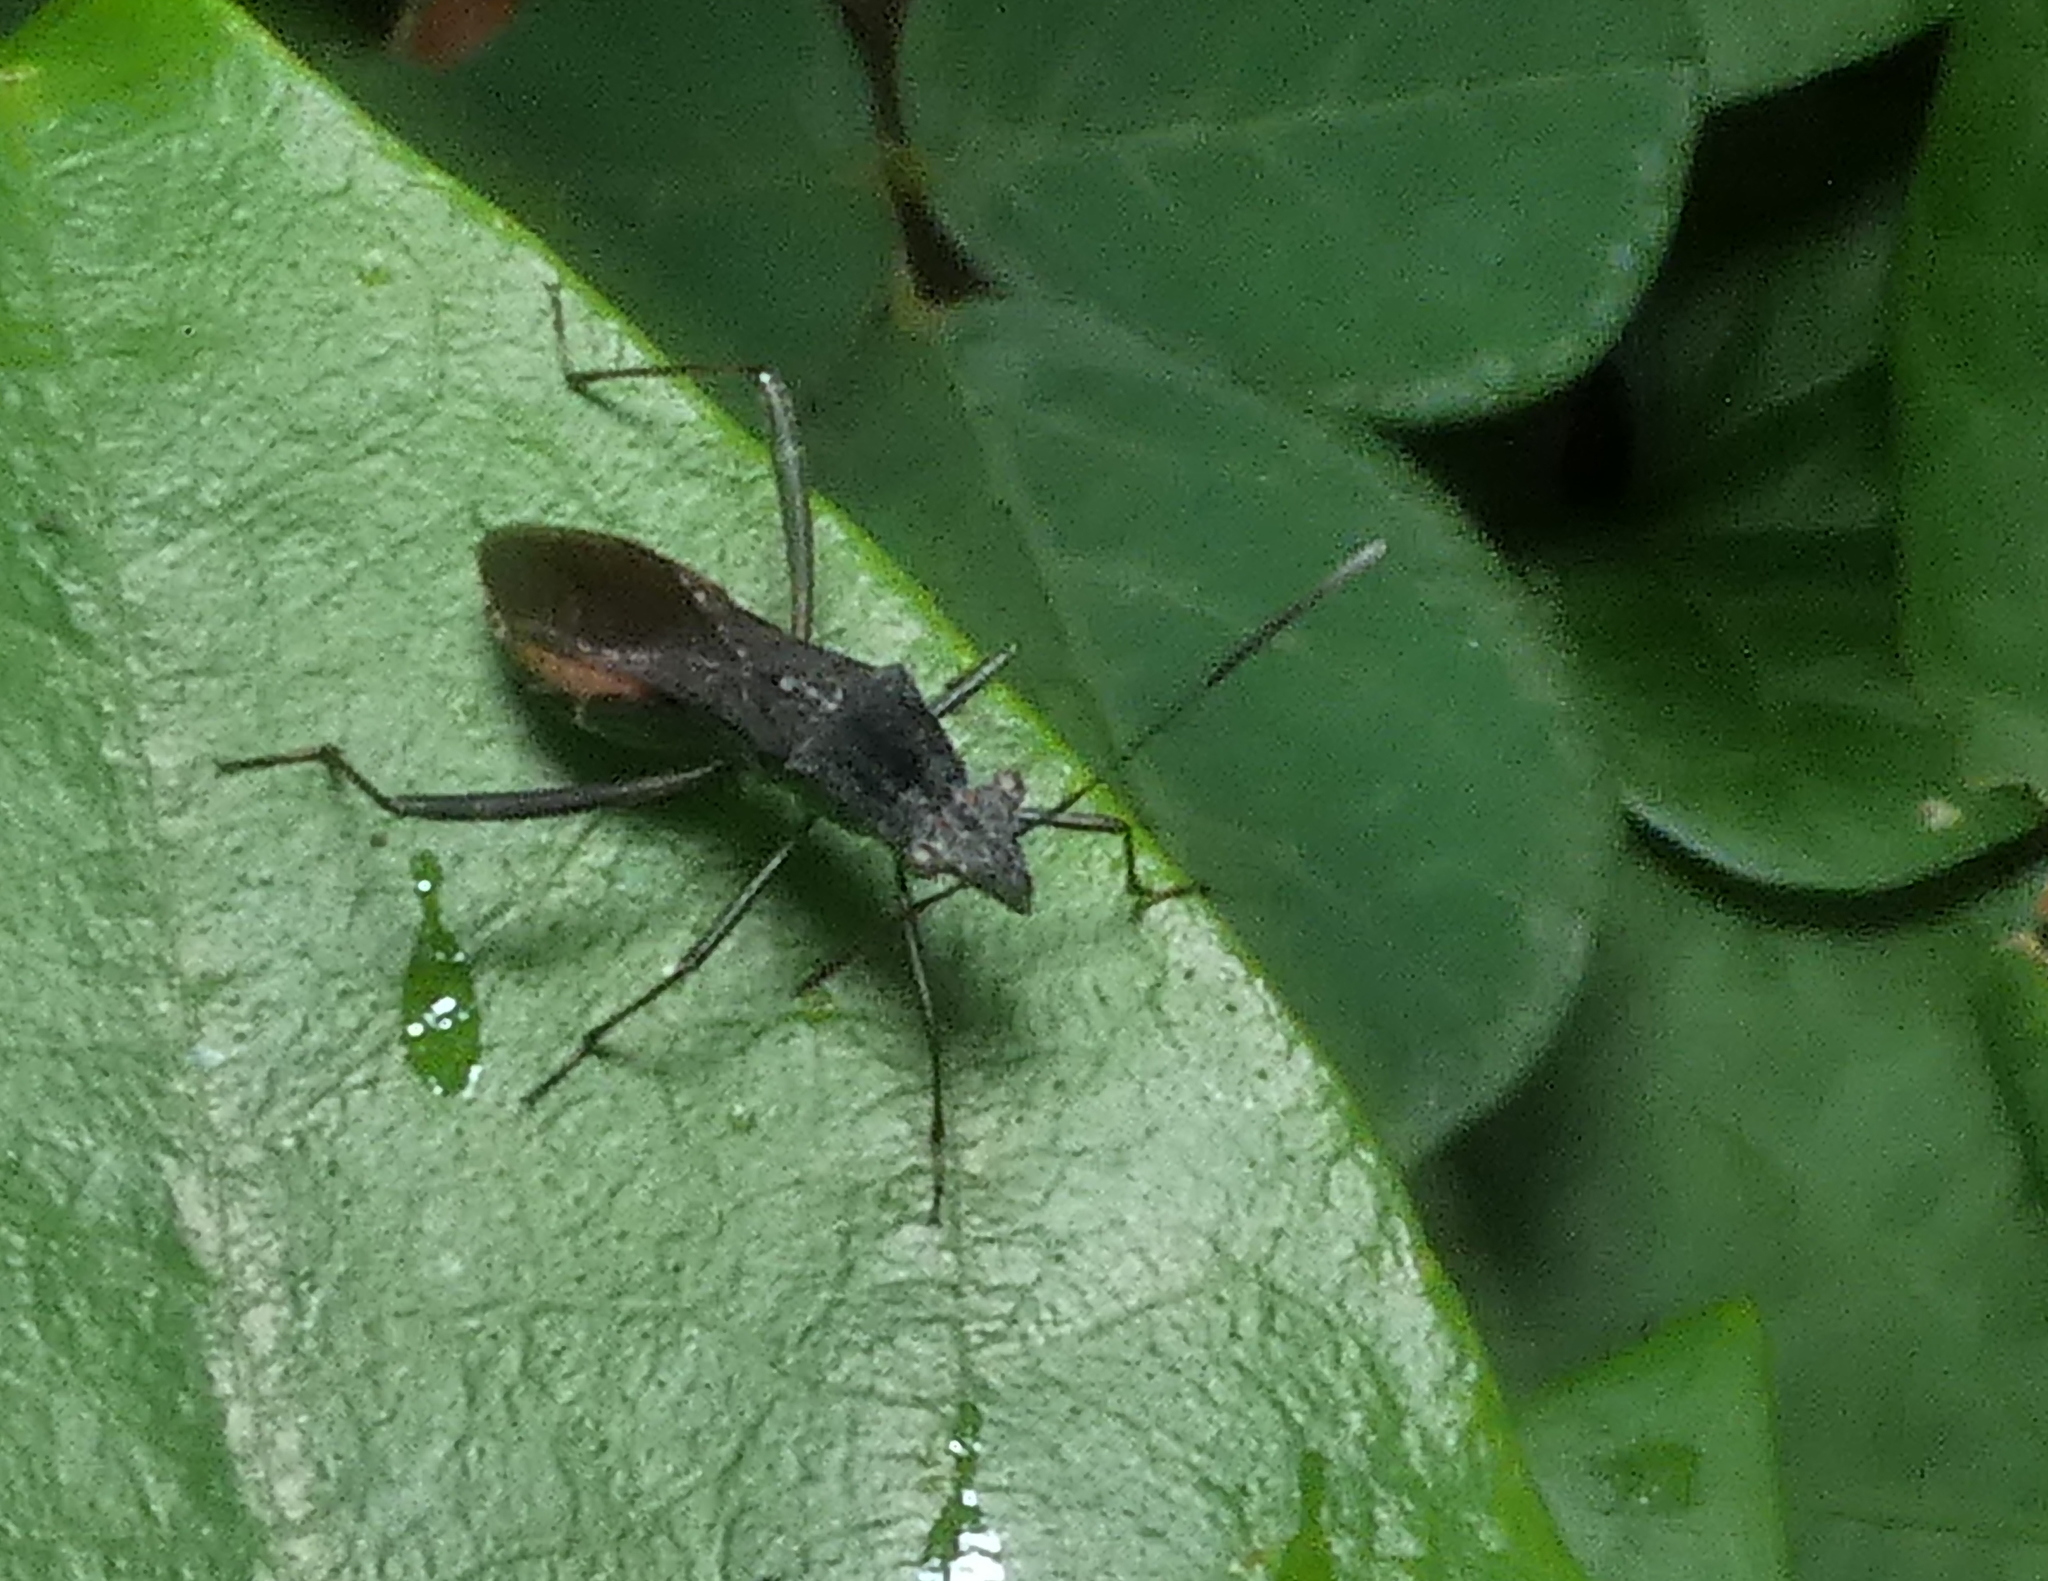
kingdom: Animalia
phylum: Arthropoda
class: Insecta
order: Hemiptera
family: Alydidae
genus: Neomegalotomus
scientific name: Neomegalotomus parvus
